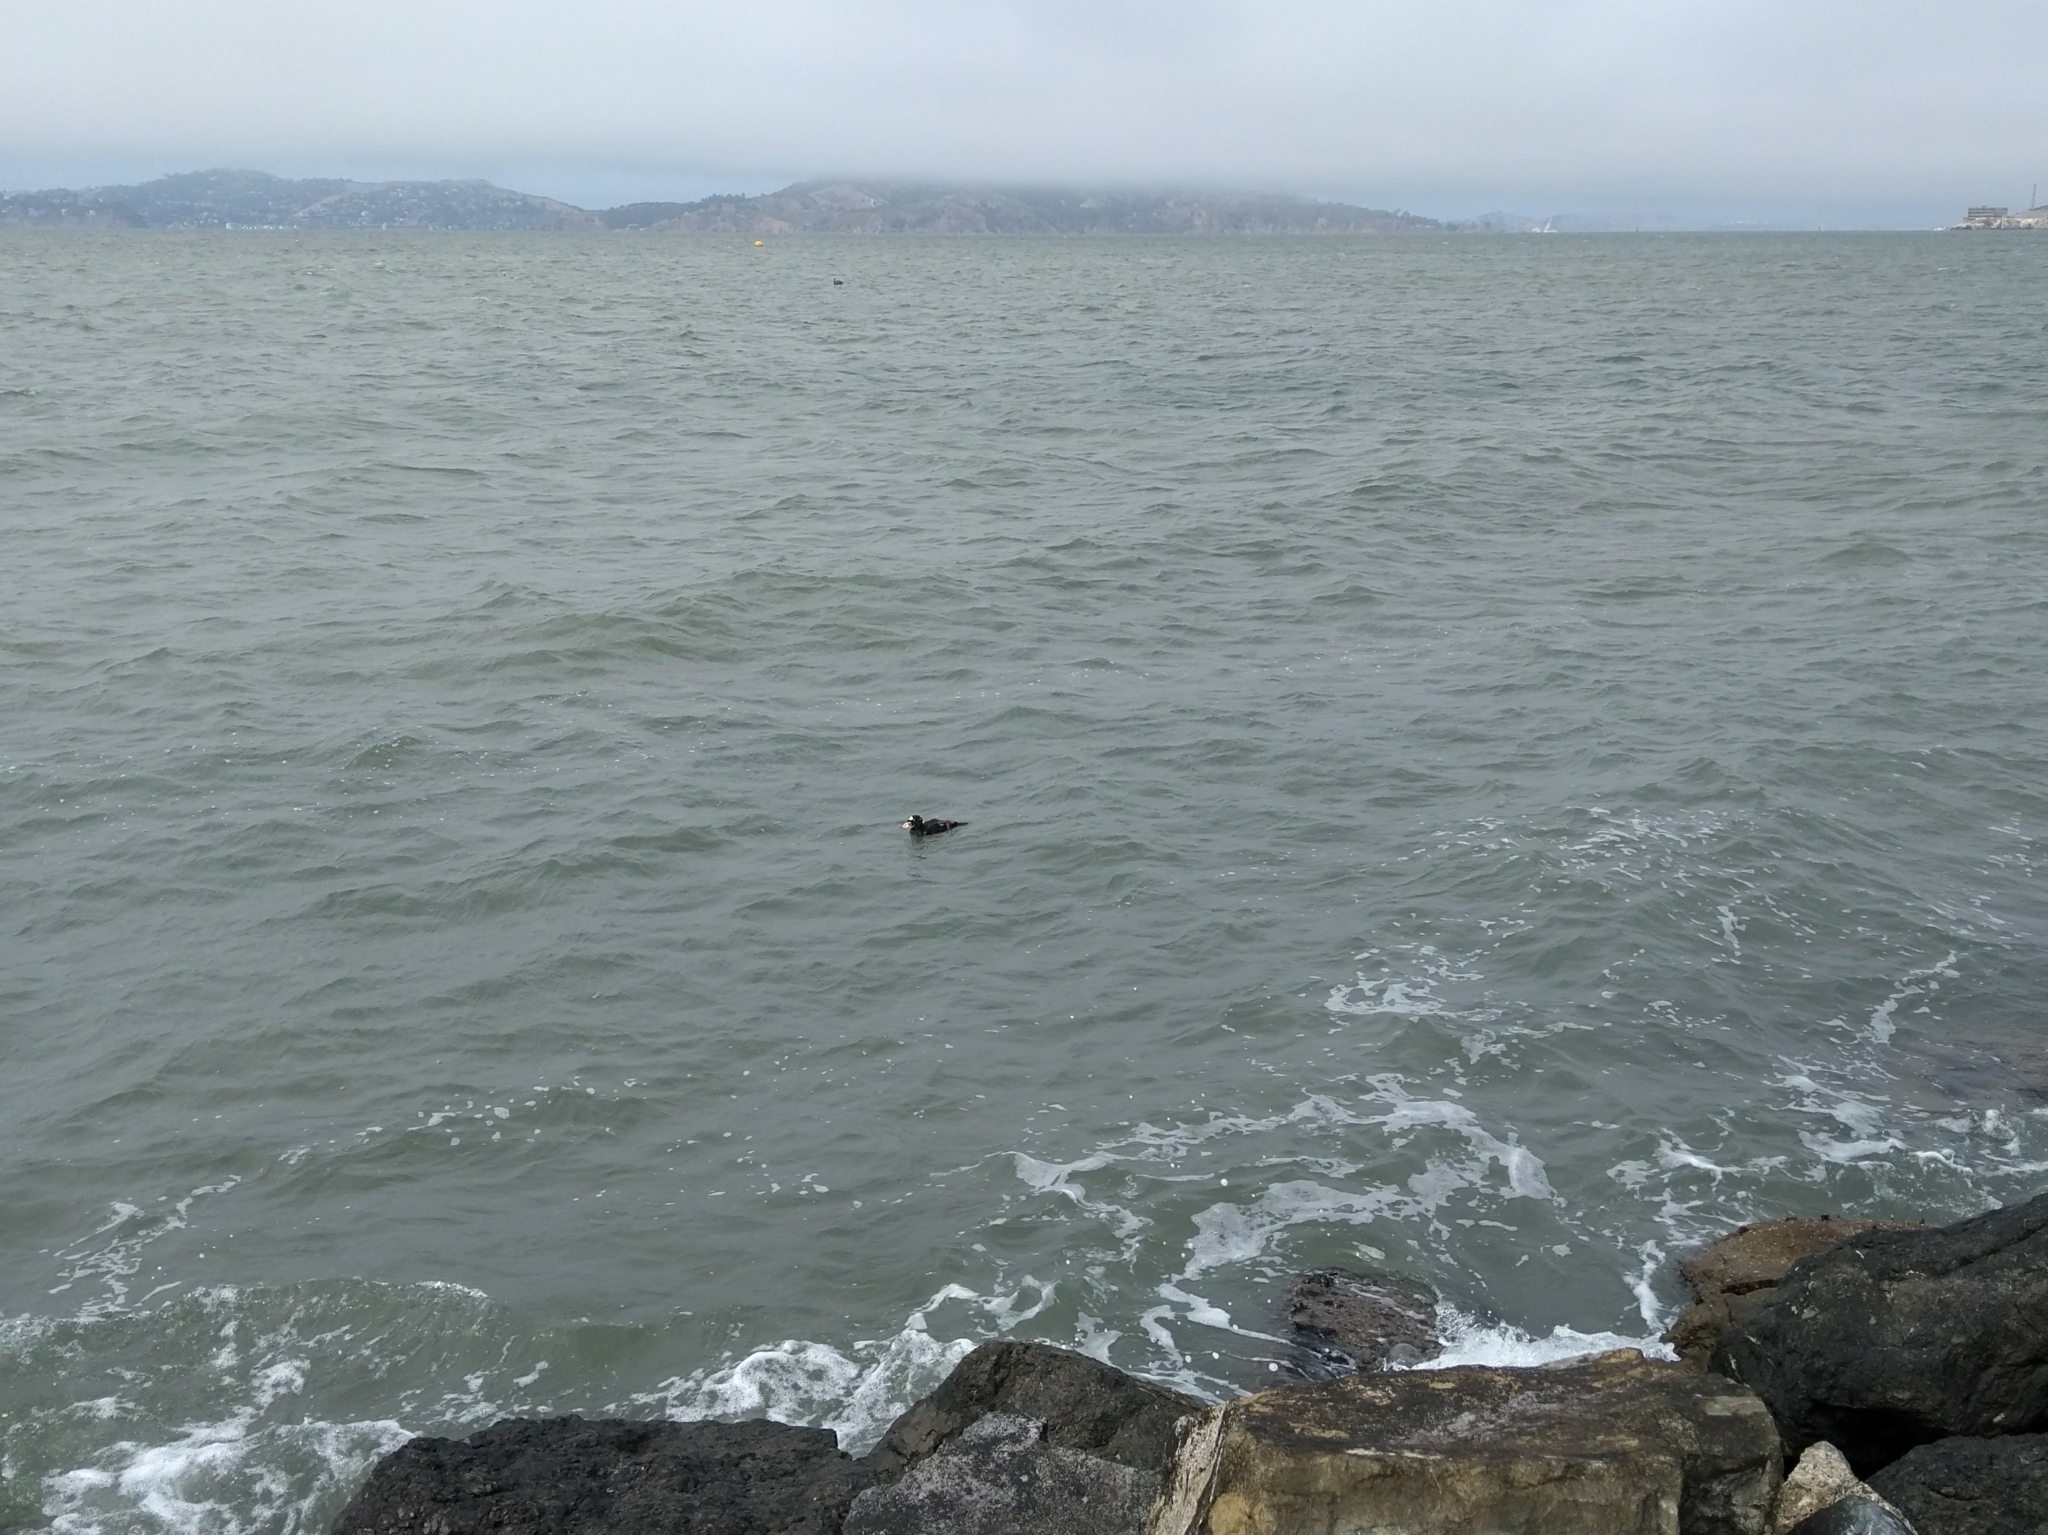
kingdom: Animalia
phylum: Chordata
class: Aves
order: Anseriformes
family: Anatidae
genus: Melanitta
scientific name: Melanitta perspicillata
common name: Surf scoter
